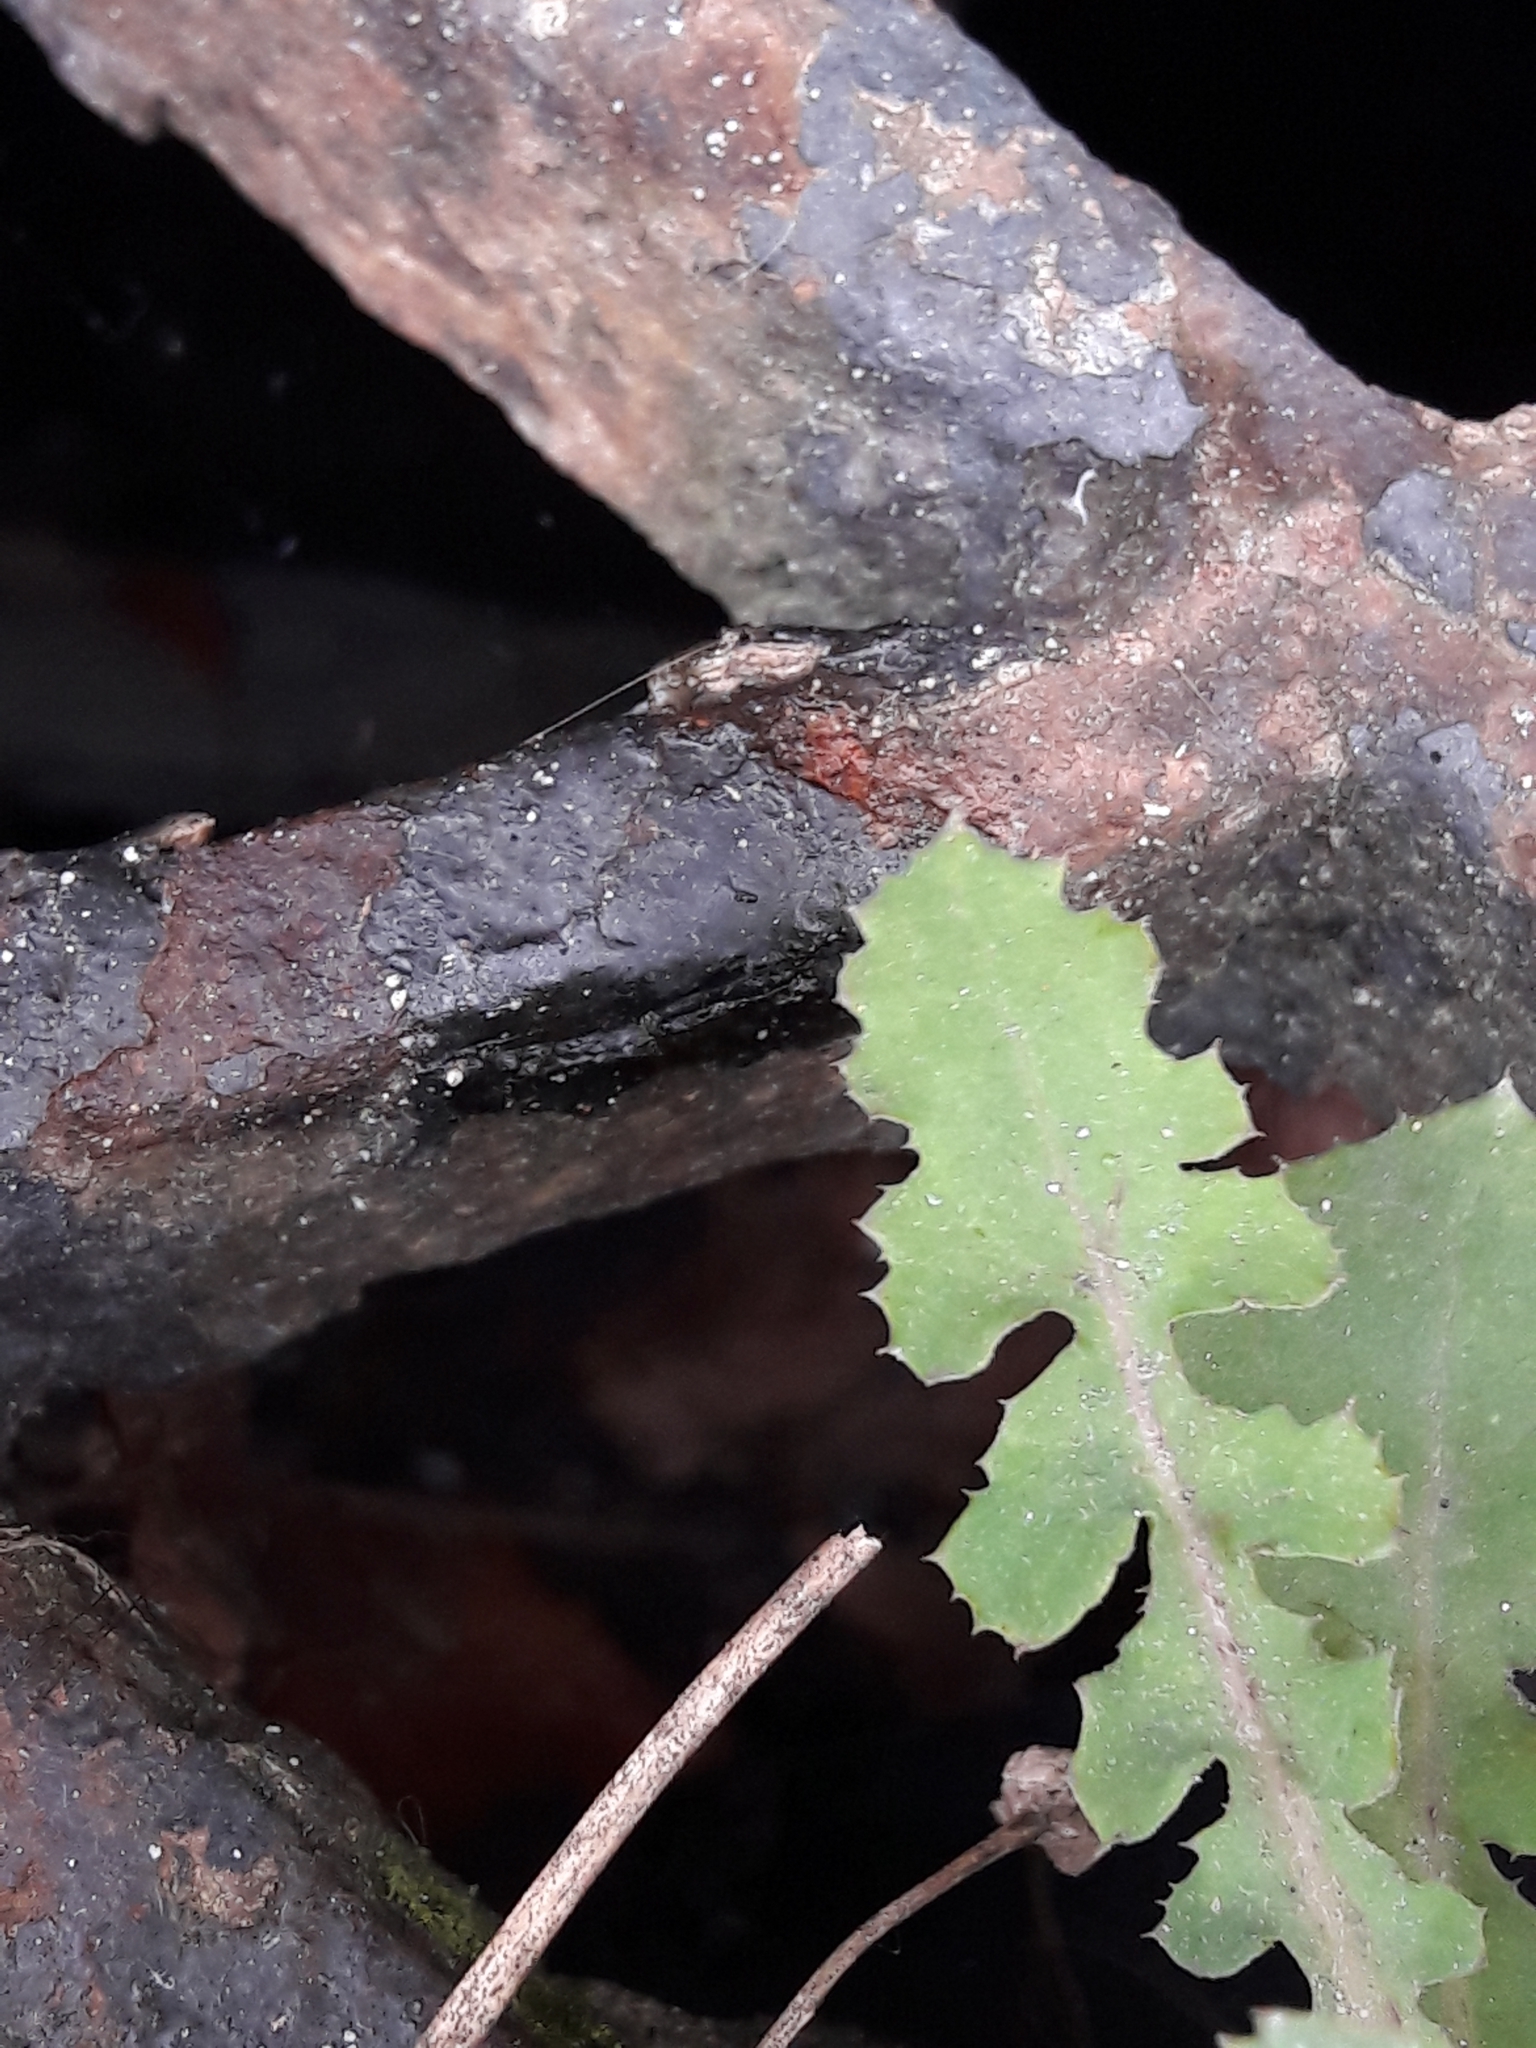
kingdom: Plantae
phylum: Tracheophyta
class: Magnoliopsida
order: Asterales
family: Asteraceae
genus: Sonchus
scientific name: Sonchus oleraceus
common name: Common sowthistle
